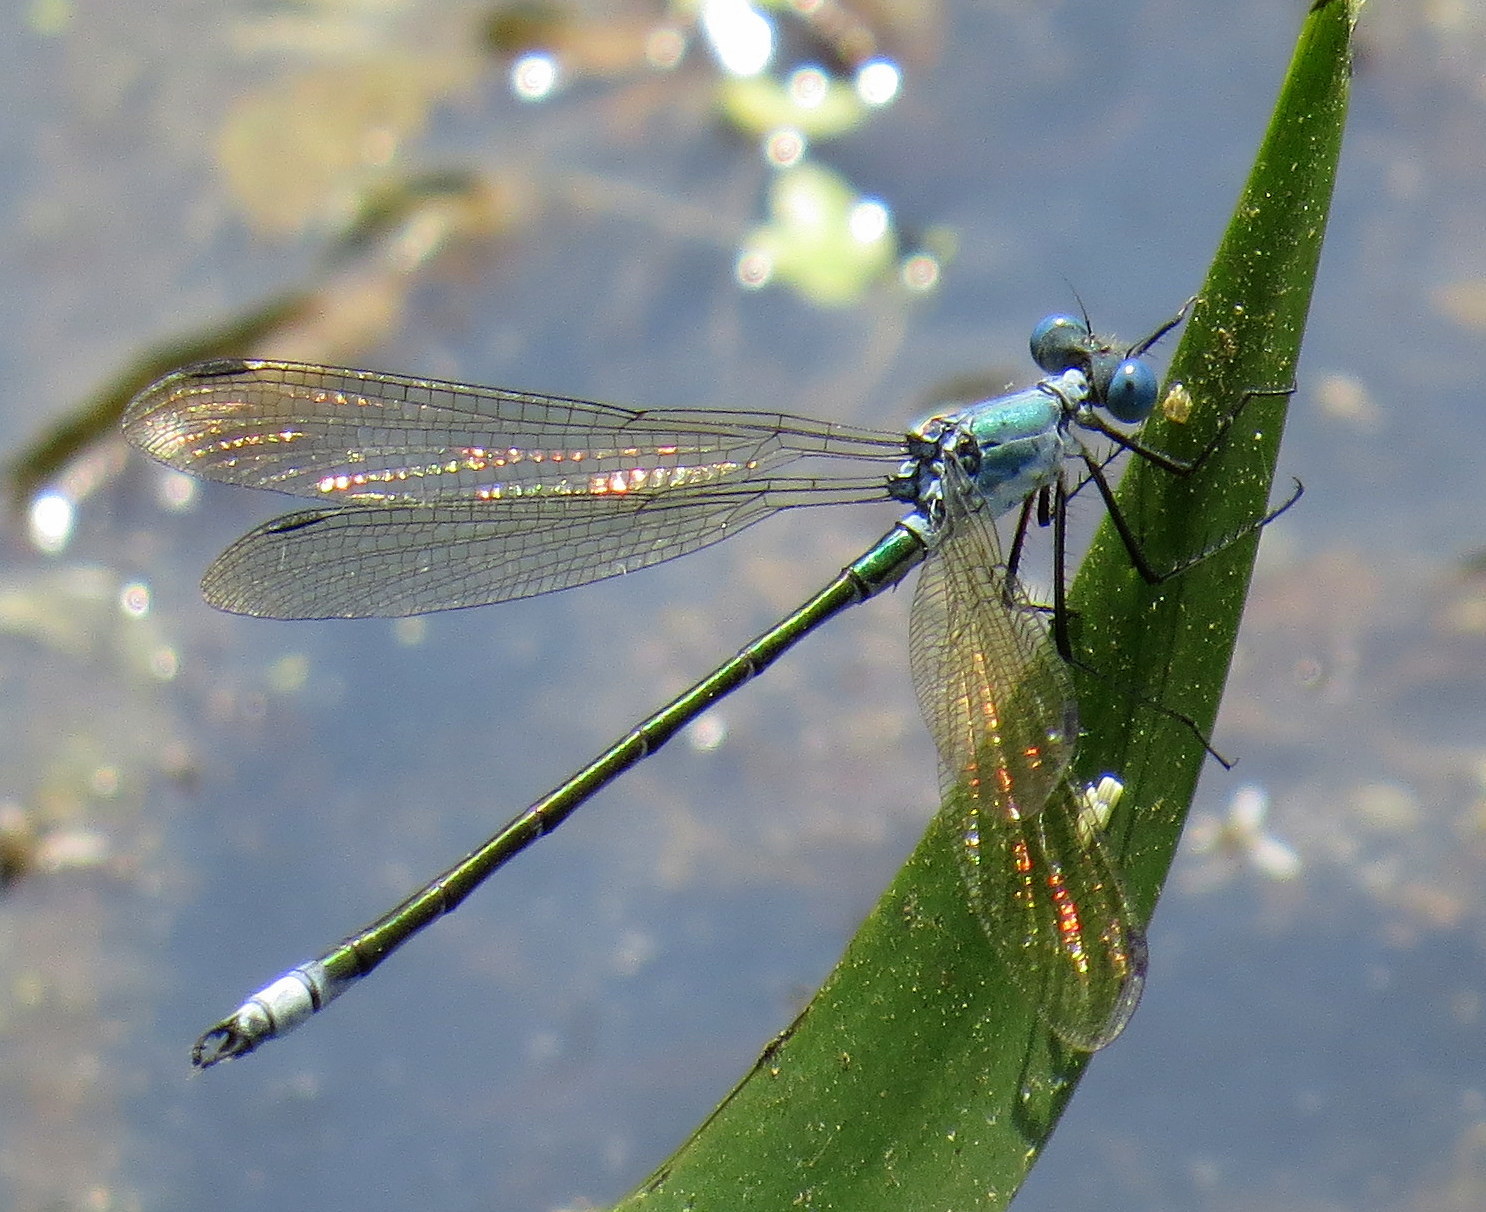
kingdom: Animalia
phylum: Arthropoda
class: Insecta
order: Odonata
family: Lestidae
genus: Lestes
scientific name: Lestes eurinus
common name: Amber-winged spreadwing
